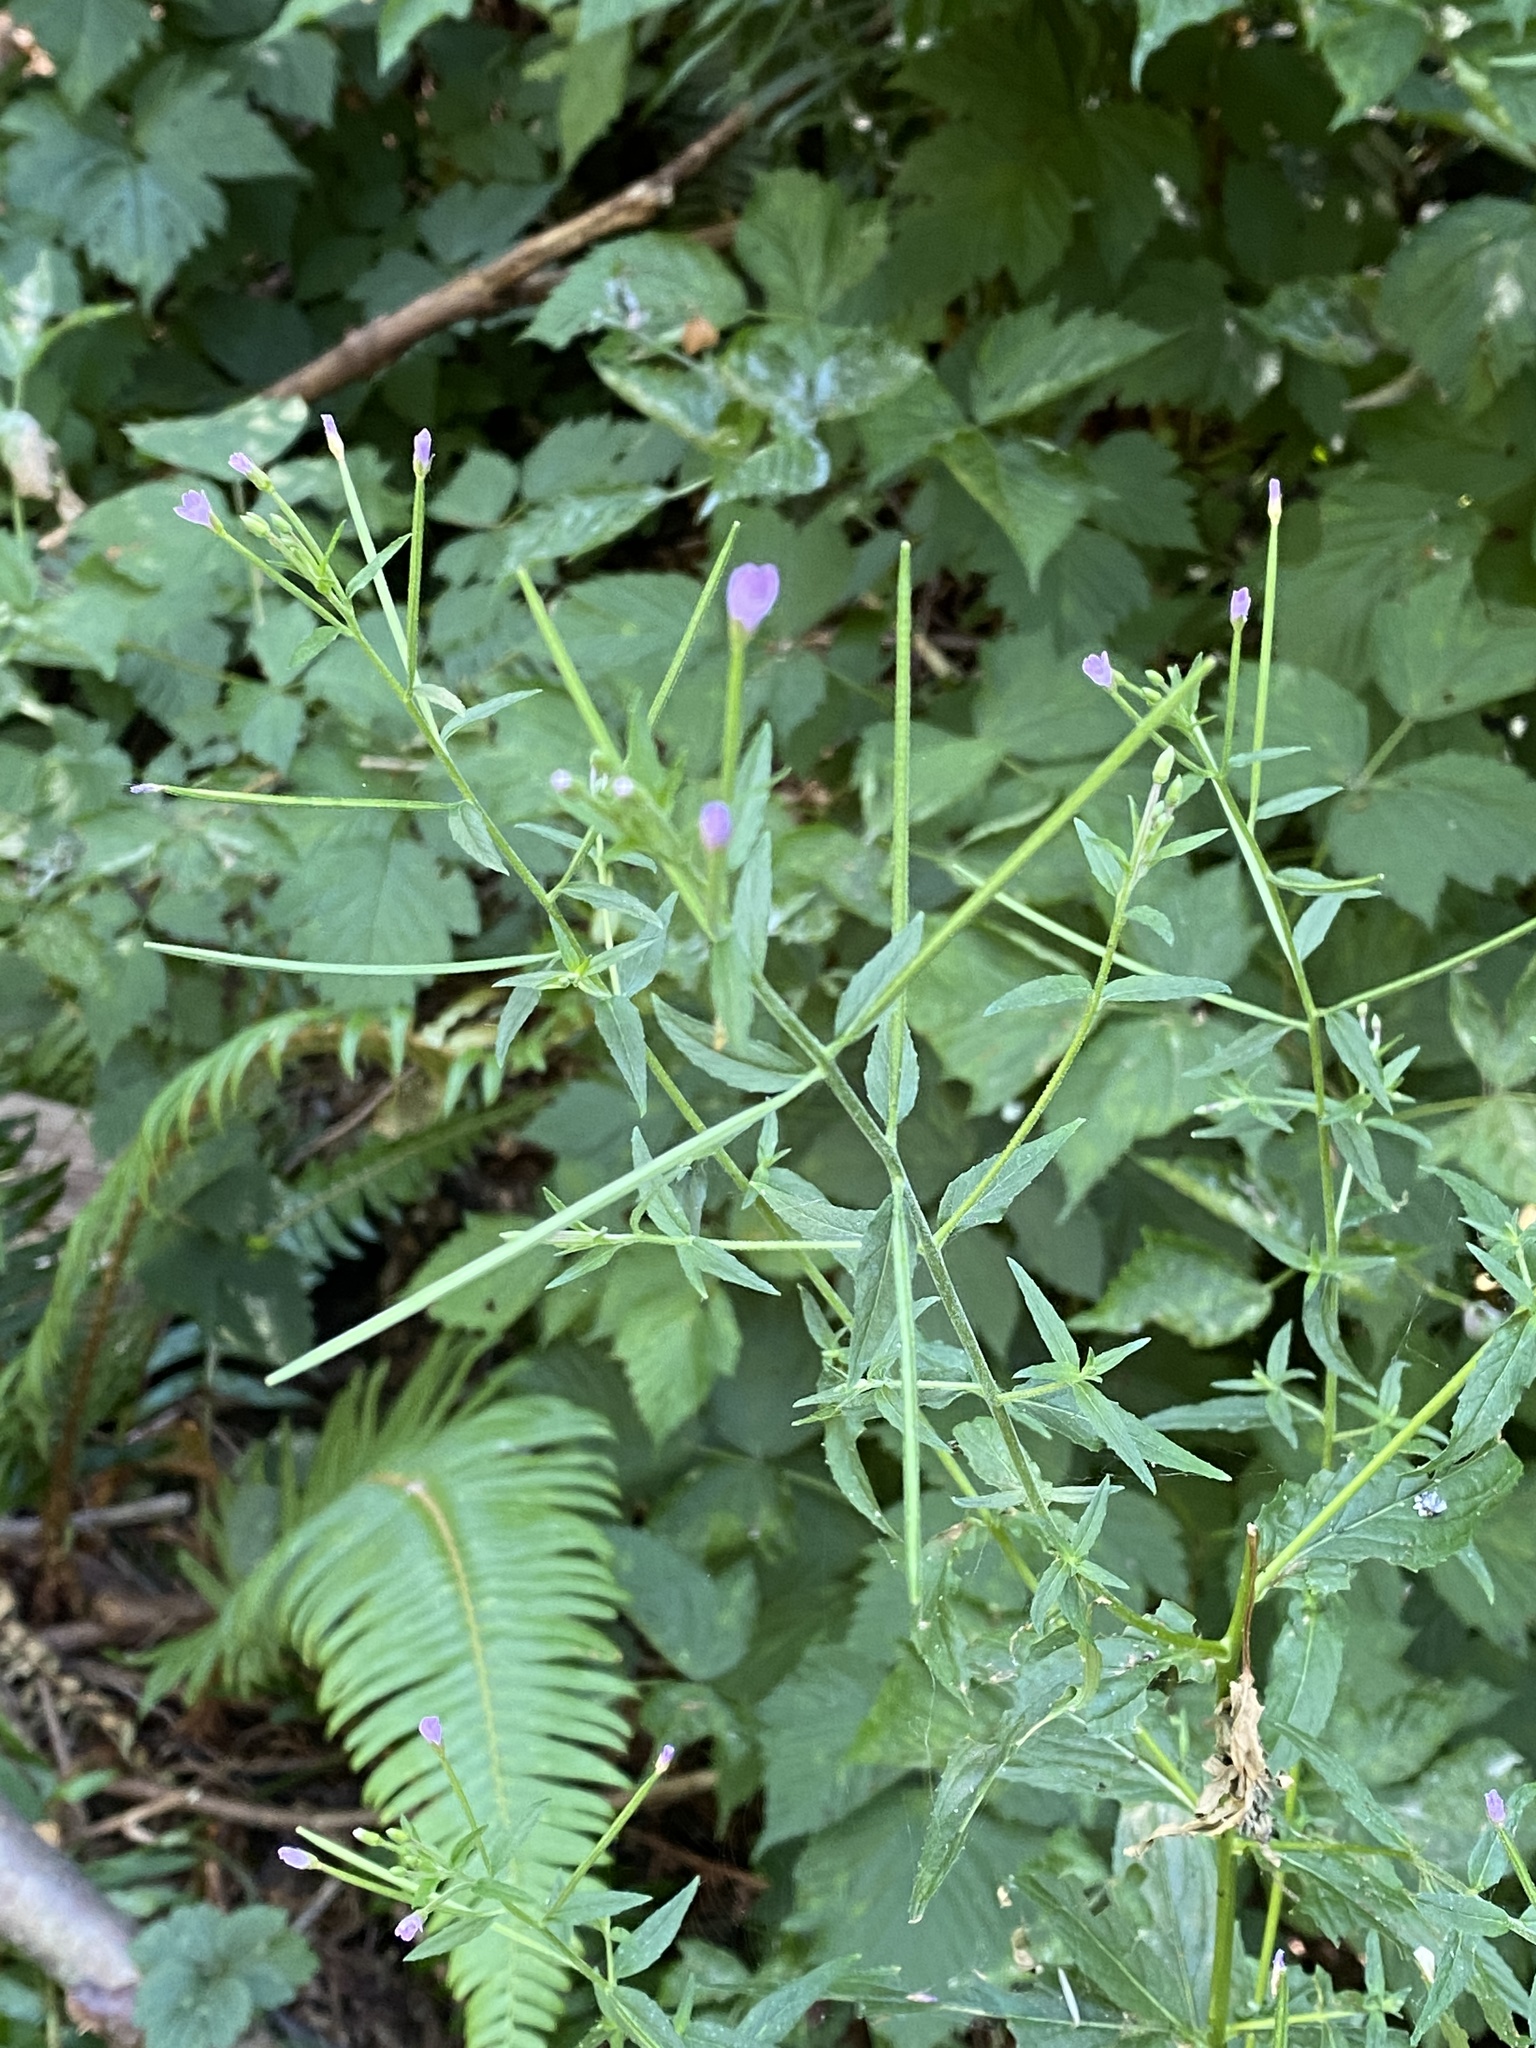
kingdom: Plantae
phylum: Tracheophyta
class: Magnoliopsida
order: Myrtales
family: Onagraceae
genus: Epilobium
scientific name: Epilobium ciliatum
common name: American willowherb
